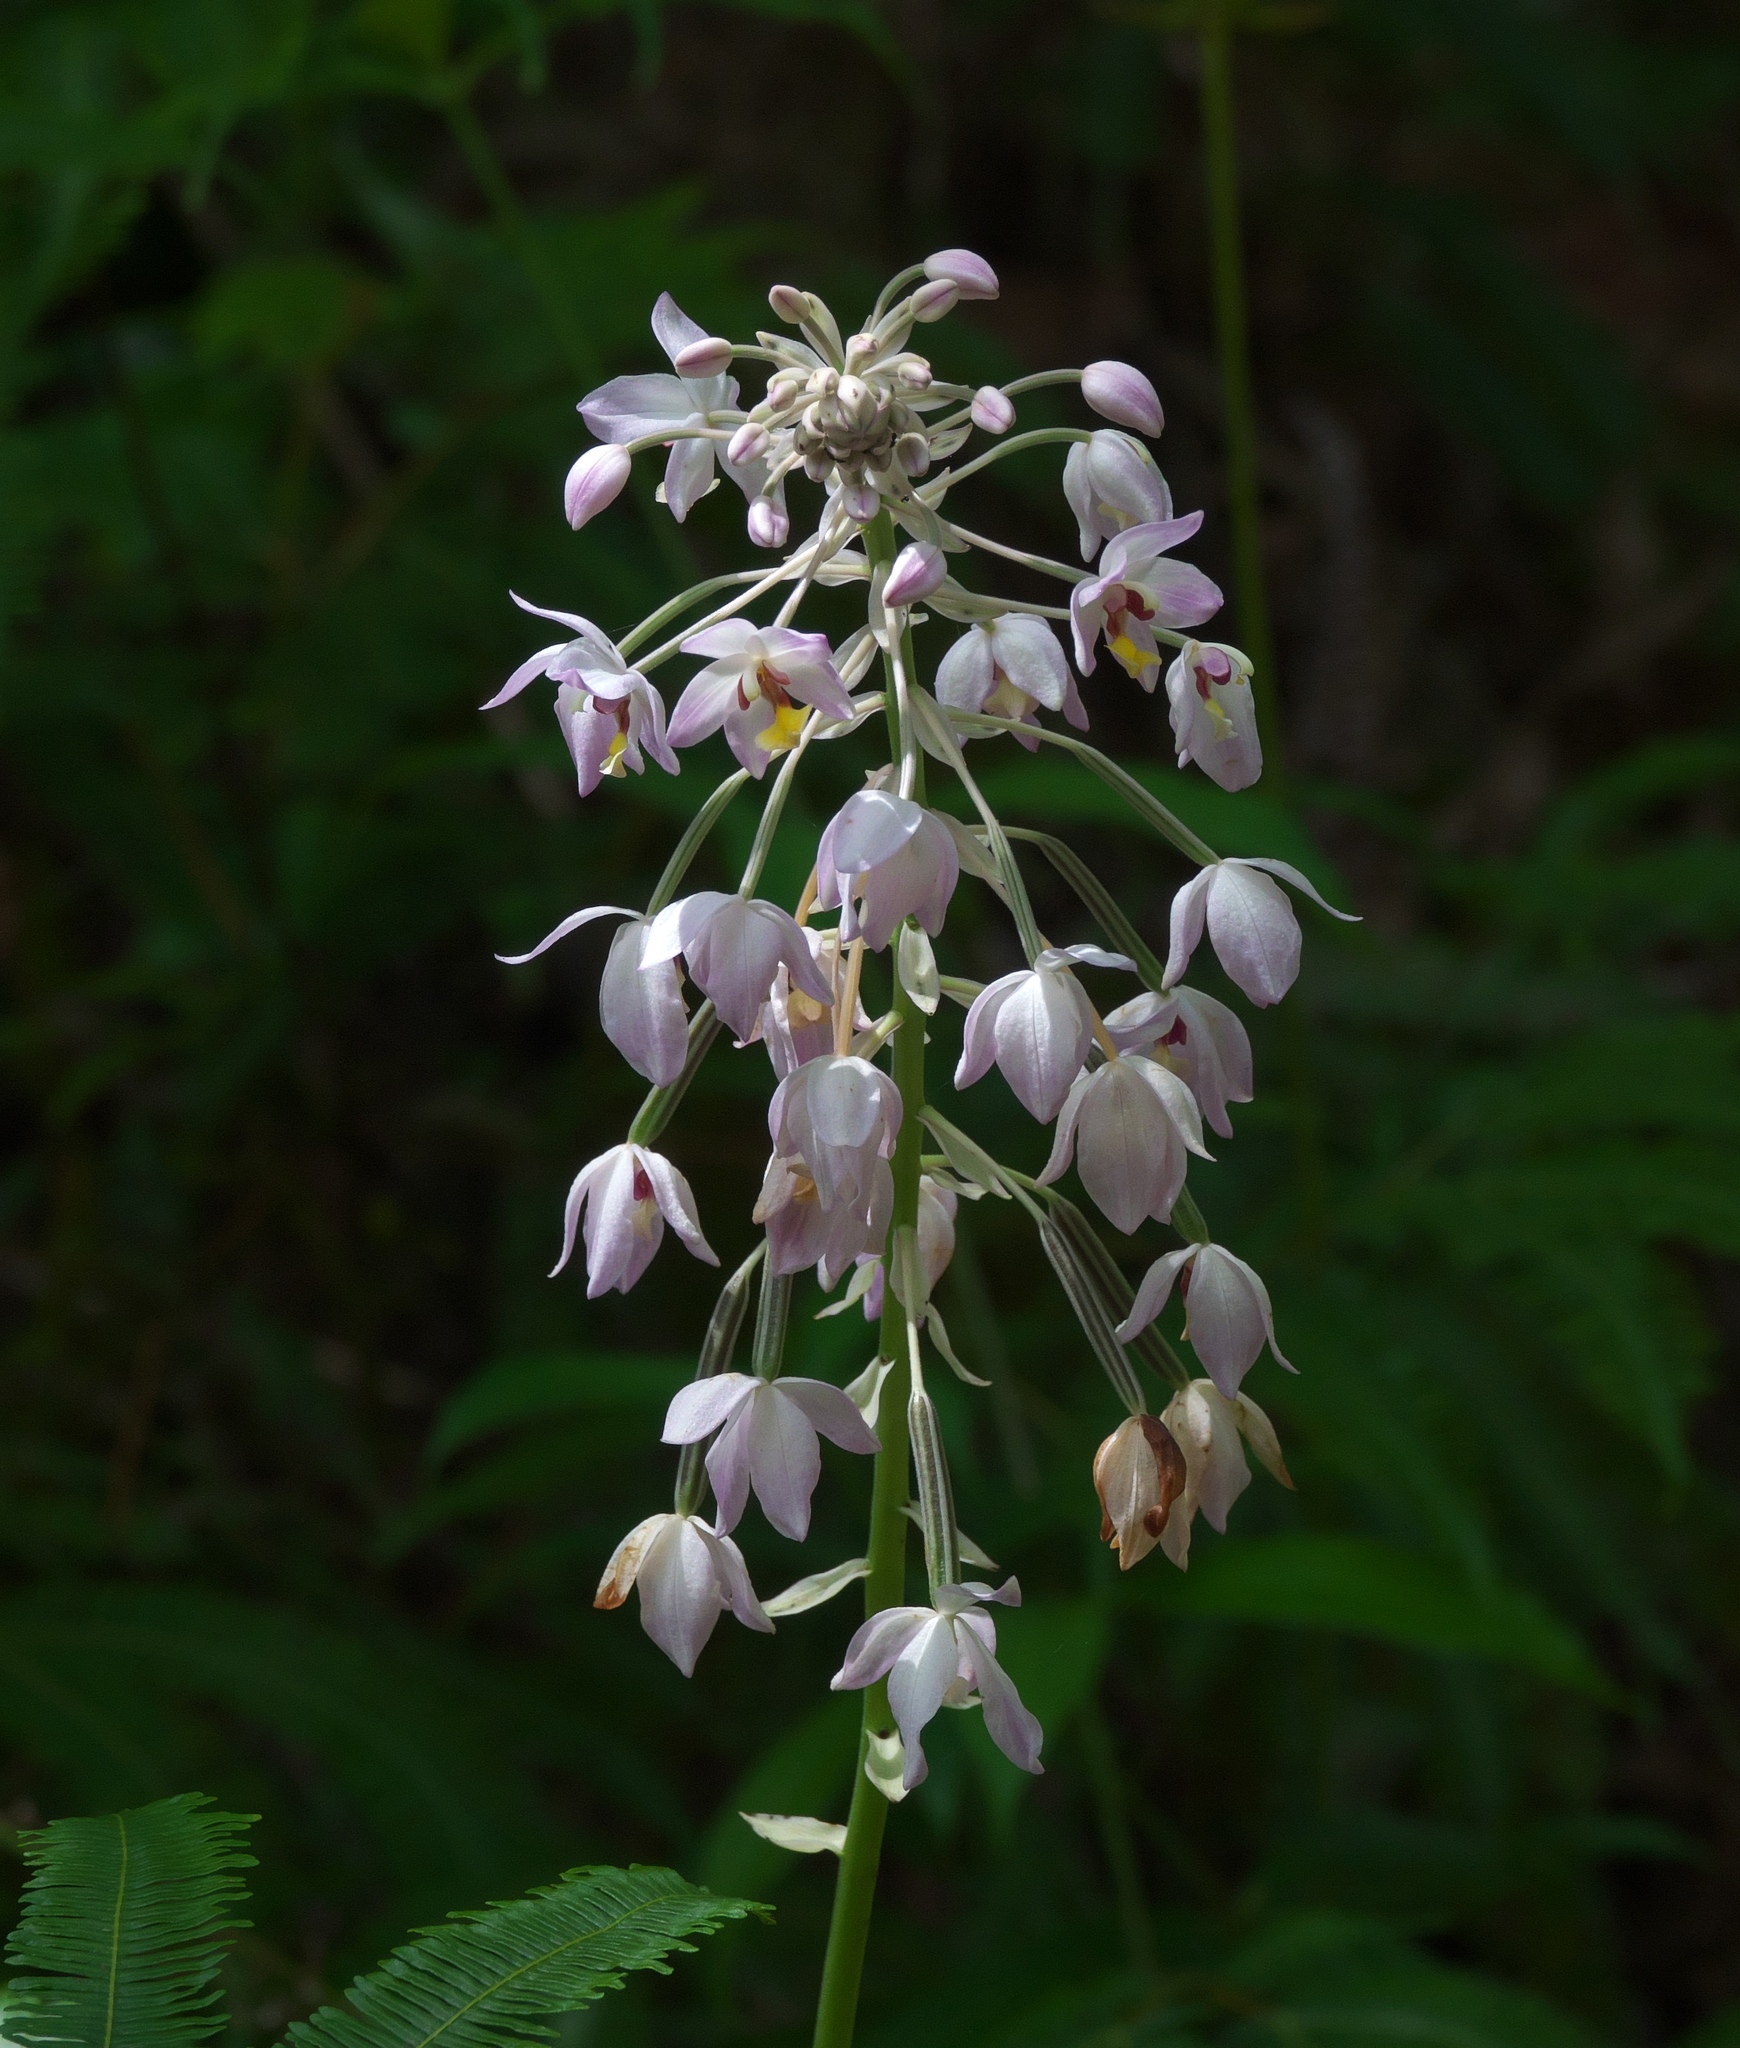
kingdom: Plantae
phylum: Tracheophyta
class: Liliopsida
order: Asparagales
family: Orchidaceae
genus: Spathoglottis
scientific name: Spathoglottis pacifica
